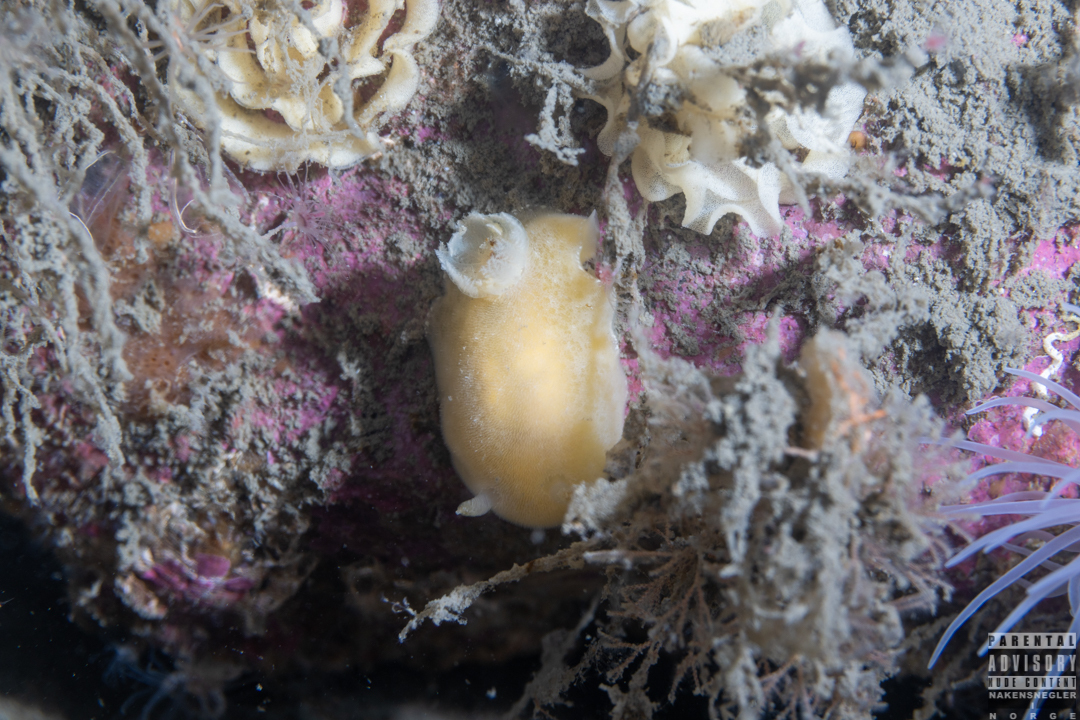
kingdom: Animalia
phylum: Mollusca
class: Gastropoda
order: Nudibranchia
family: Discodorididae
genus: Jorunna
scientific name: Jorunna tomentosa
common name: Grey sea slug
